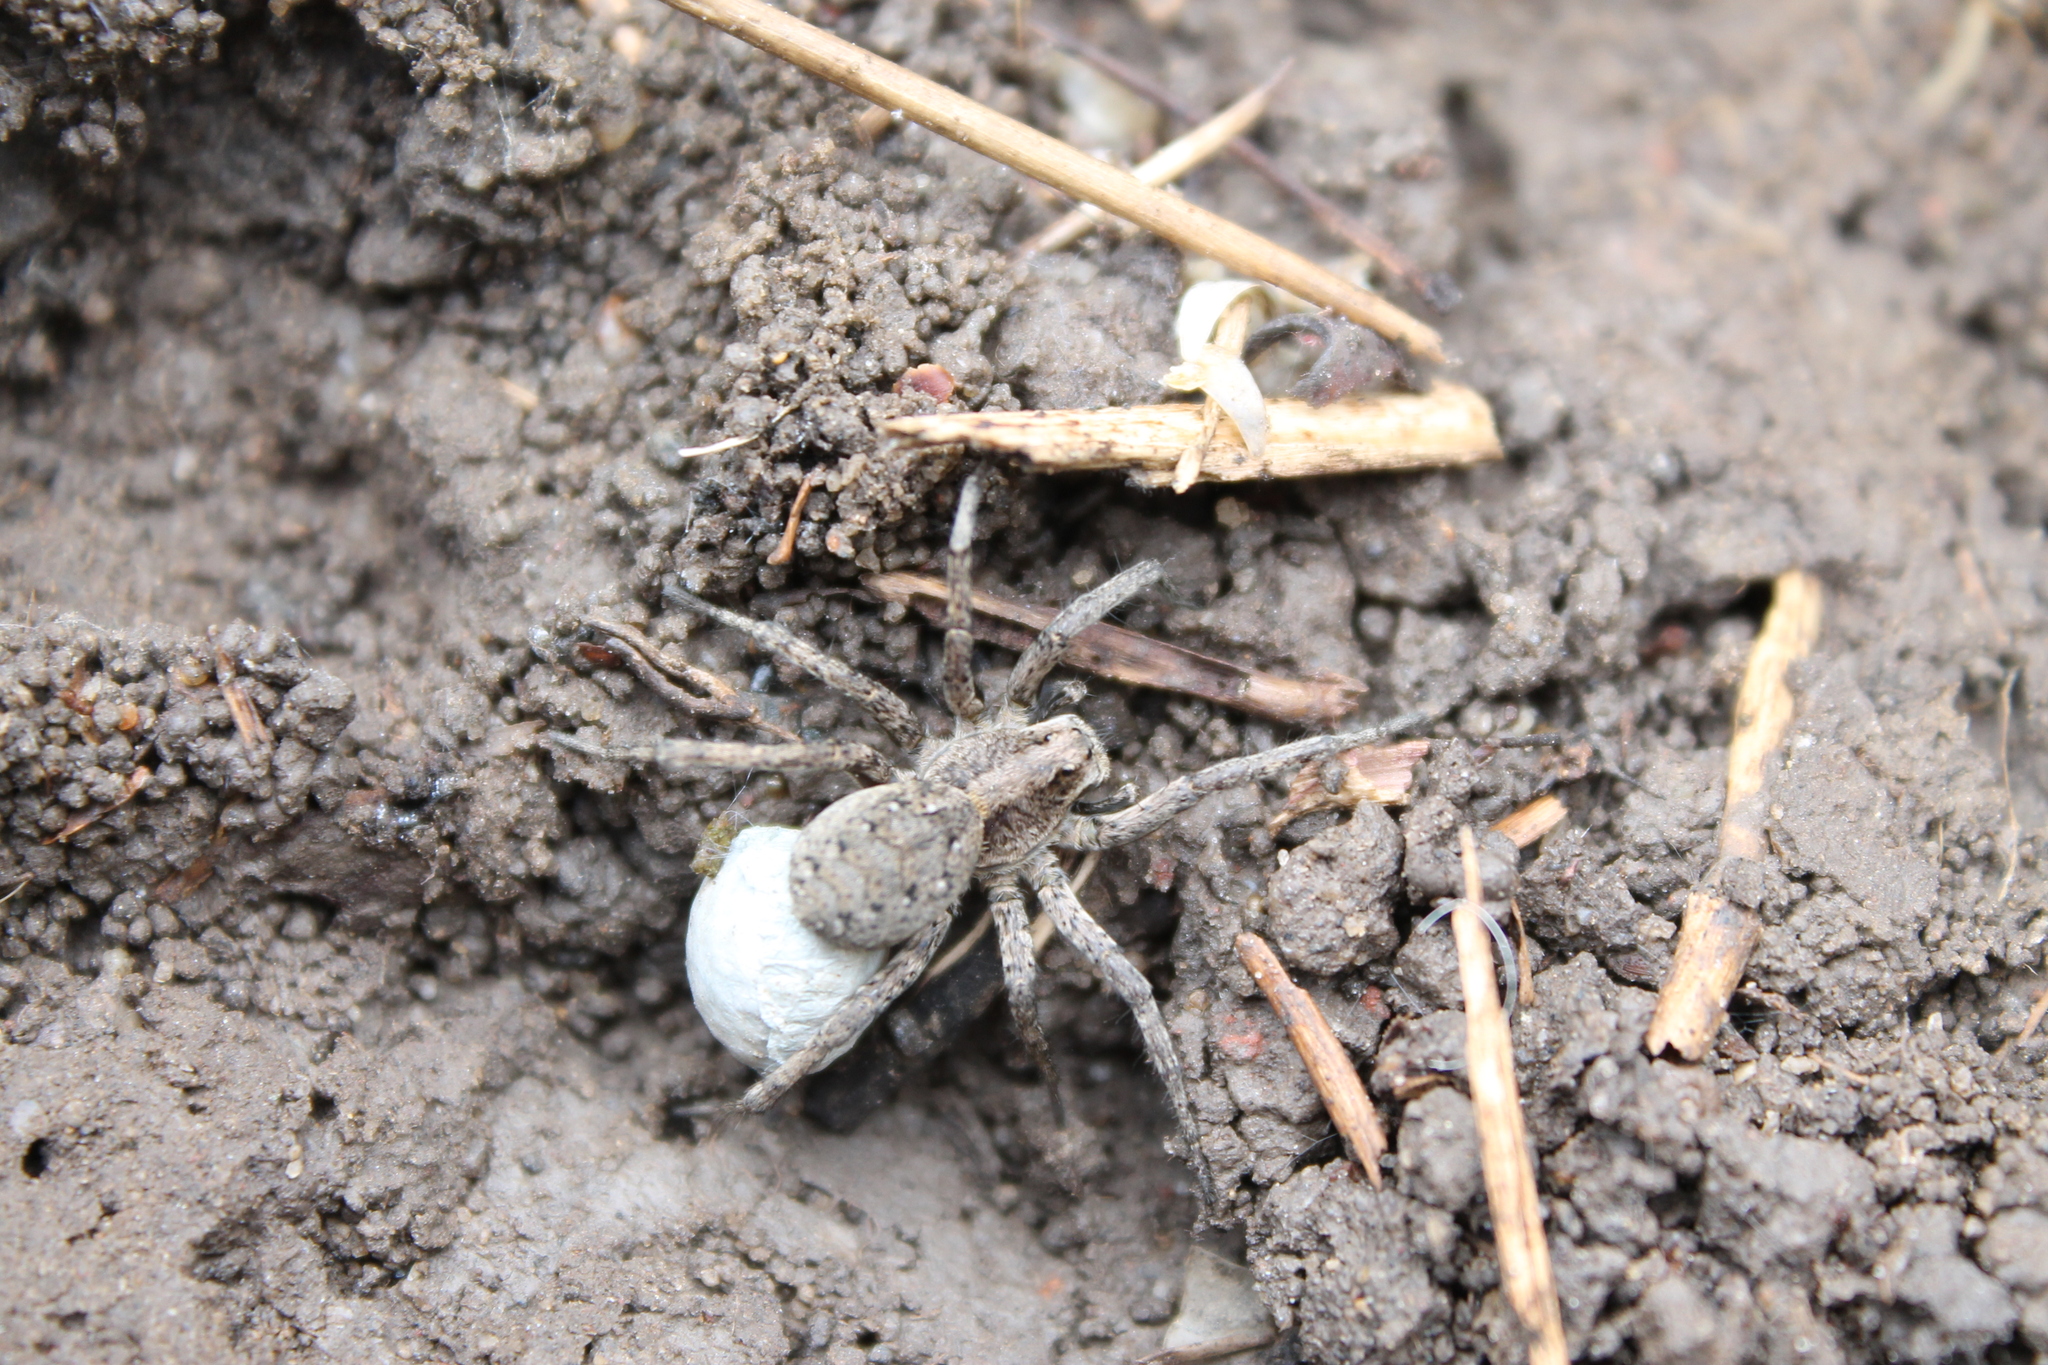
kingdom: Animalia
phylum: Arthropoda
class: Arachnida
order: Araneae
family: Lycosidae
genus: Alopecosa
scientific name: Alopecosa kochi
